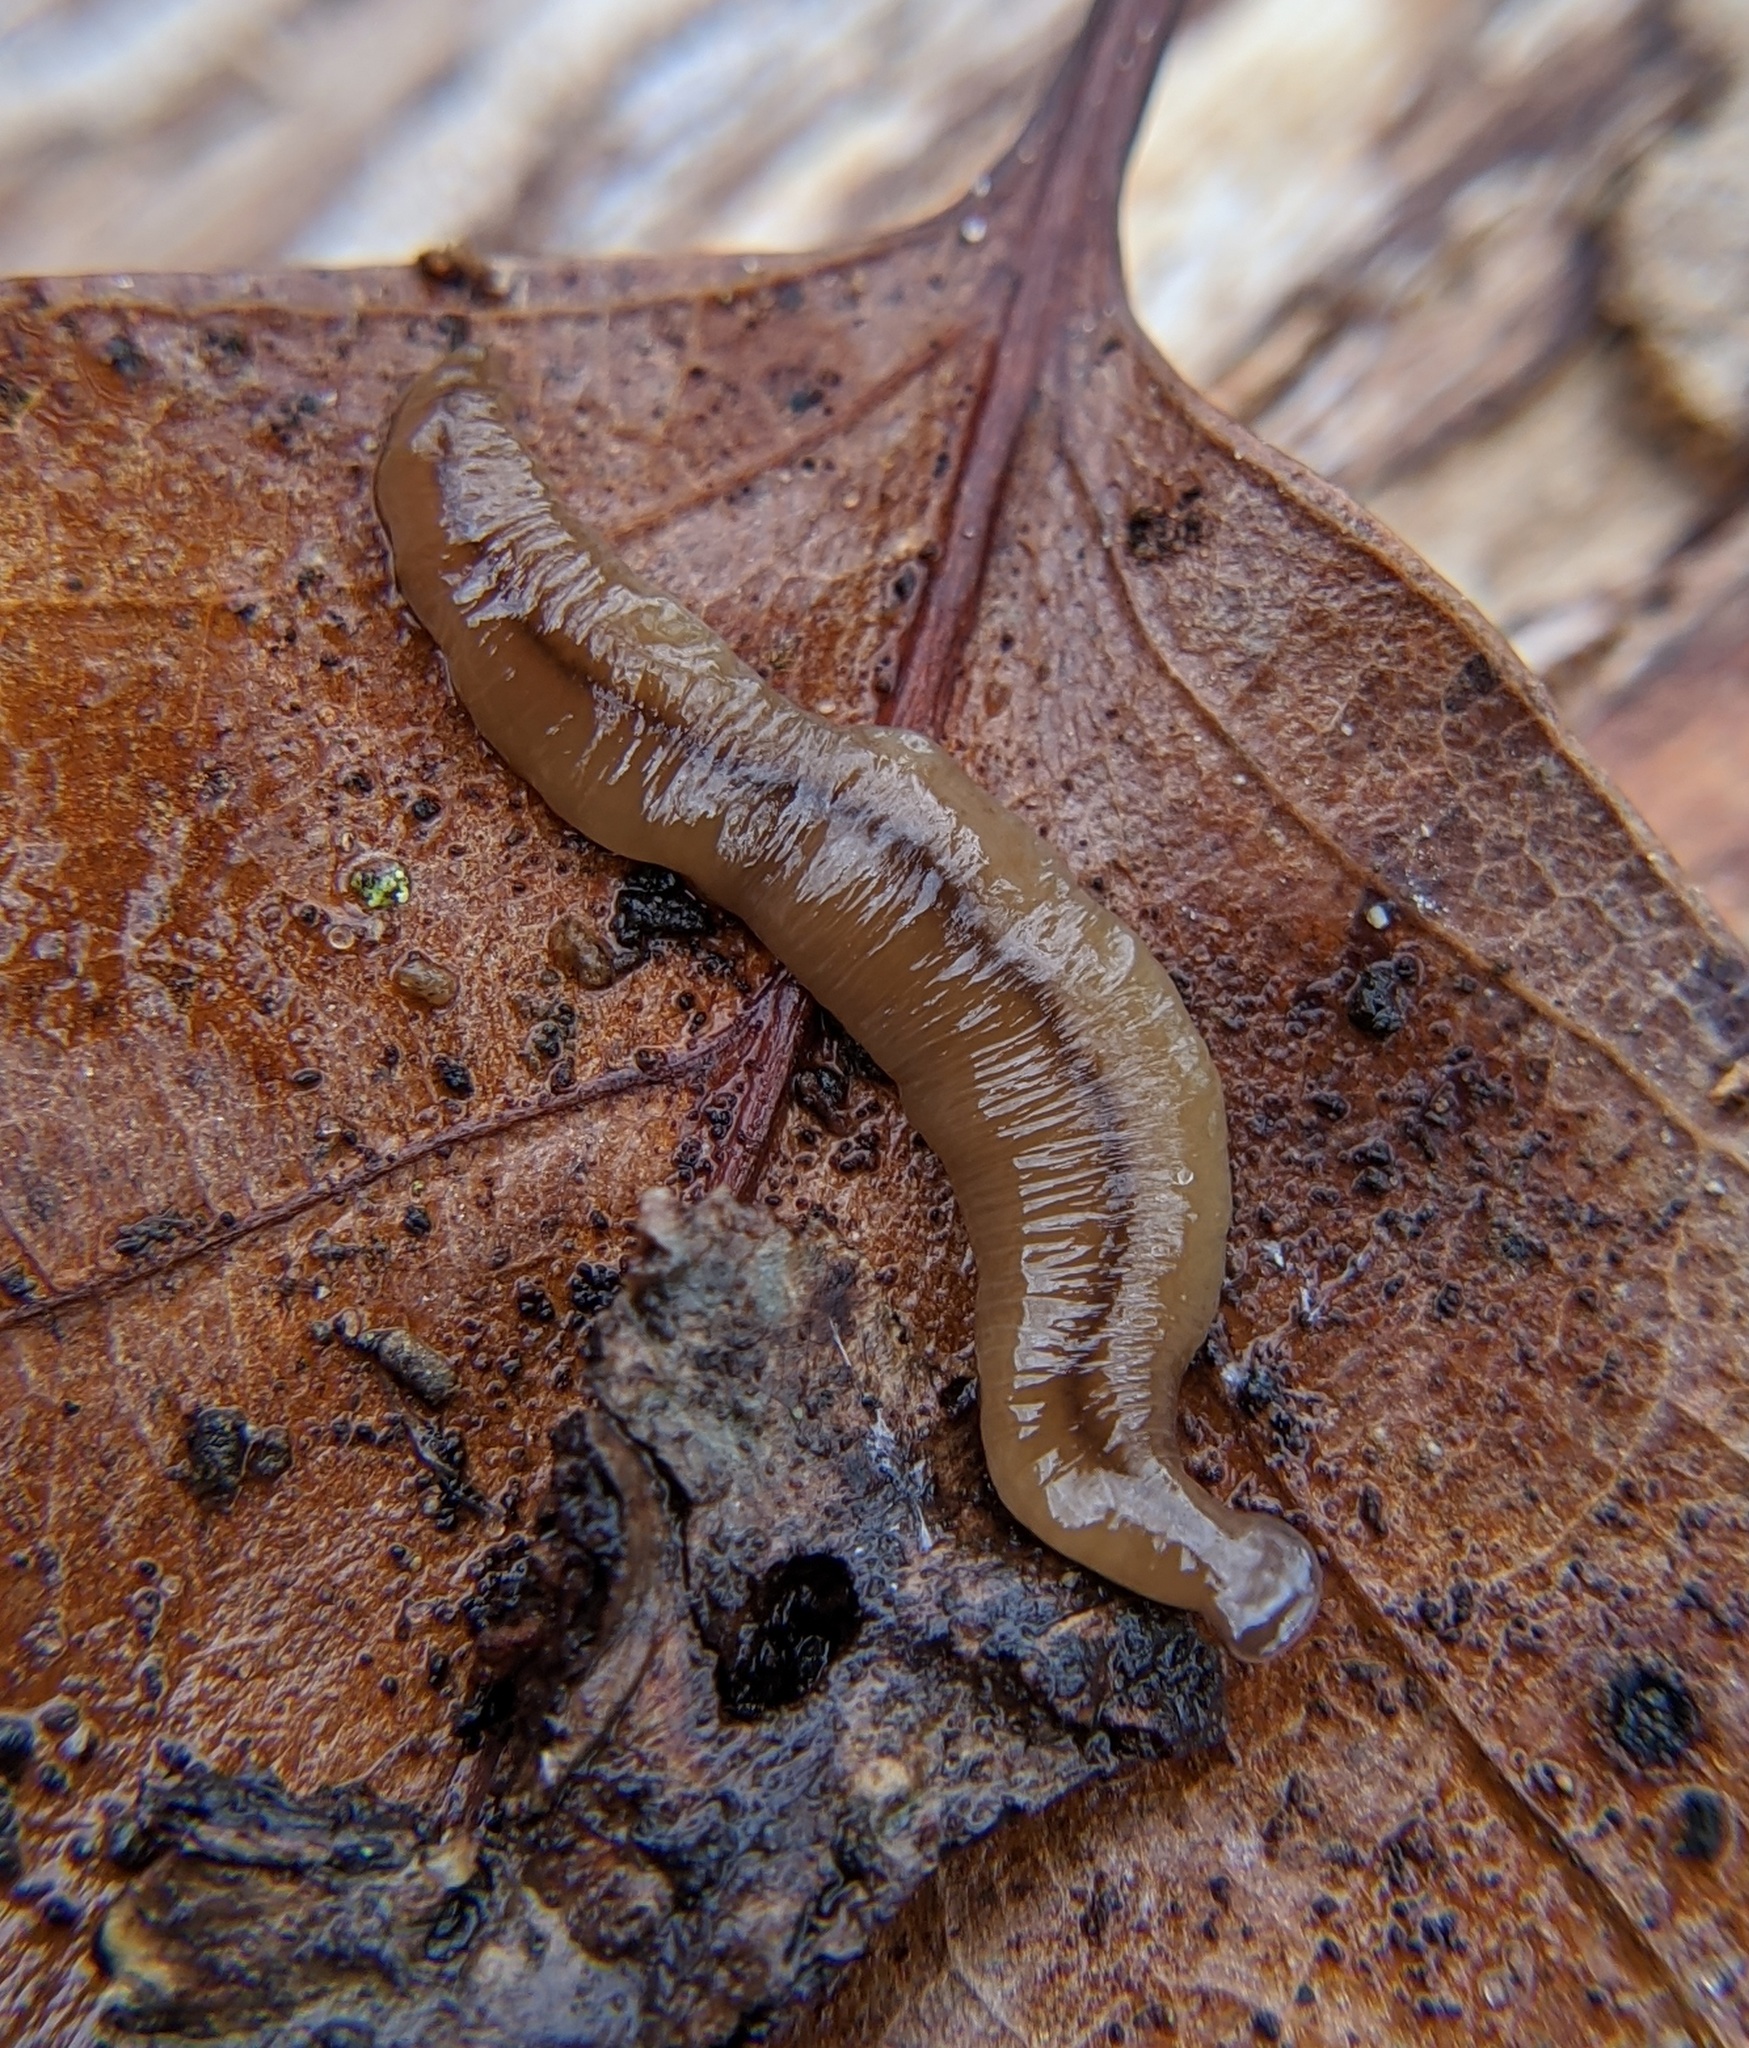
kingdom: Animalia
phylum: Platyhelminthes
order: Tricladida
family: Geoplanidae
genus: Bipalium
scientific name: Bipalium adventitium
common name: Land planarian
